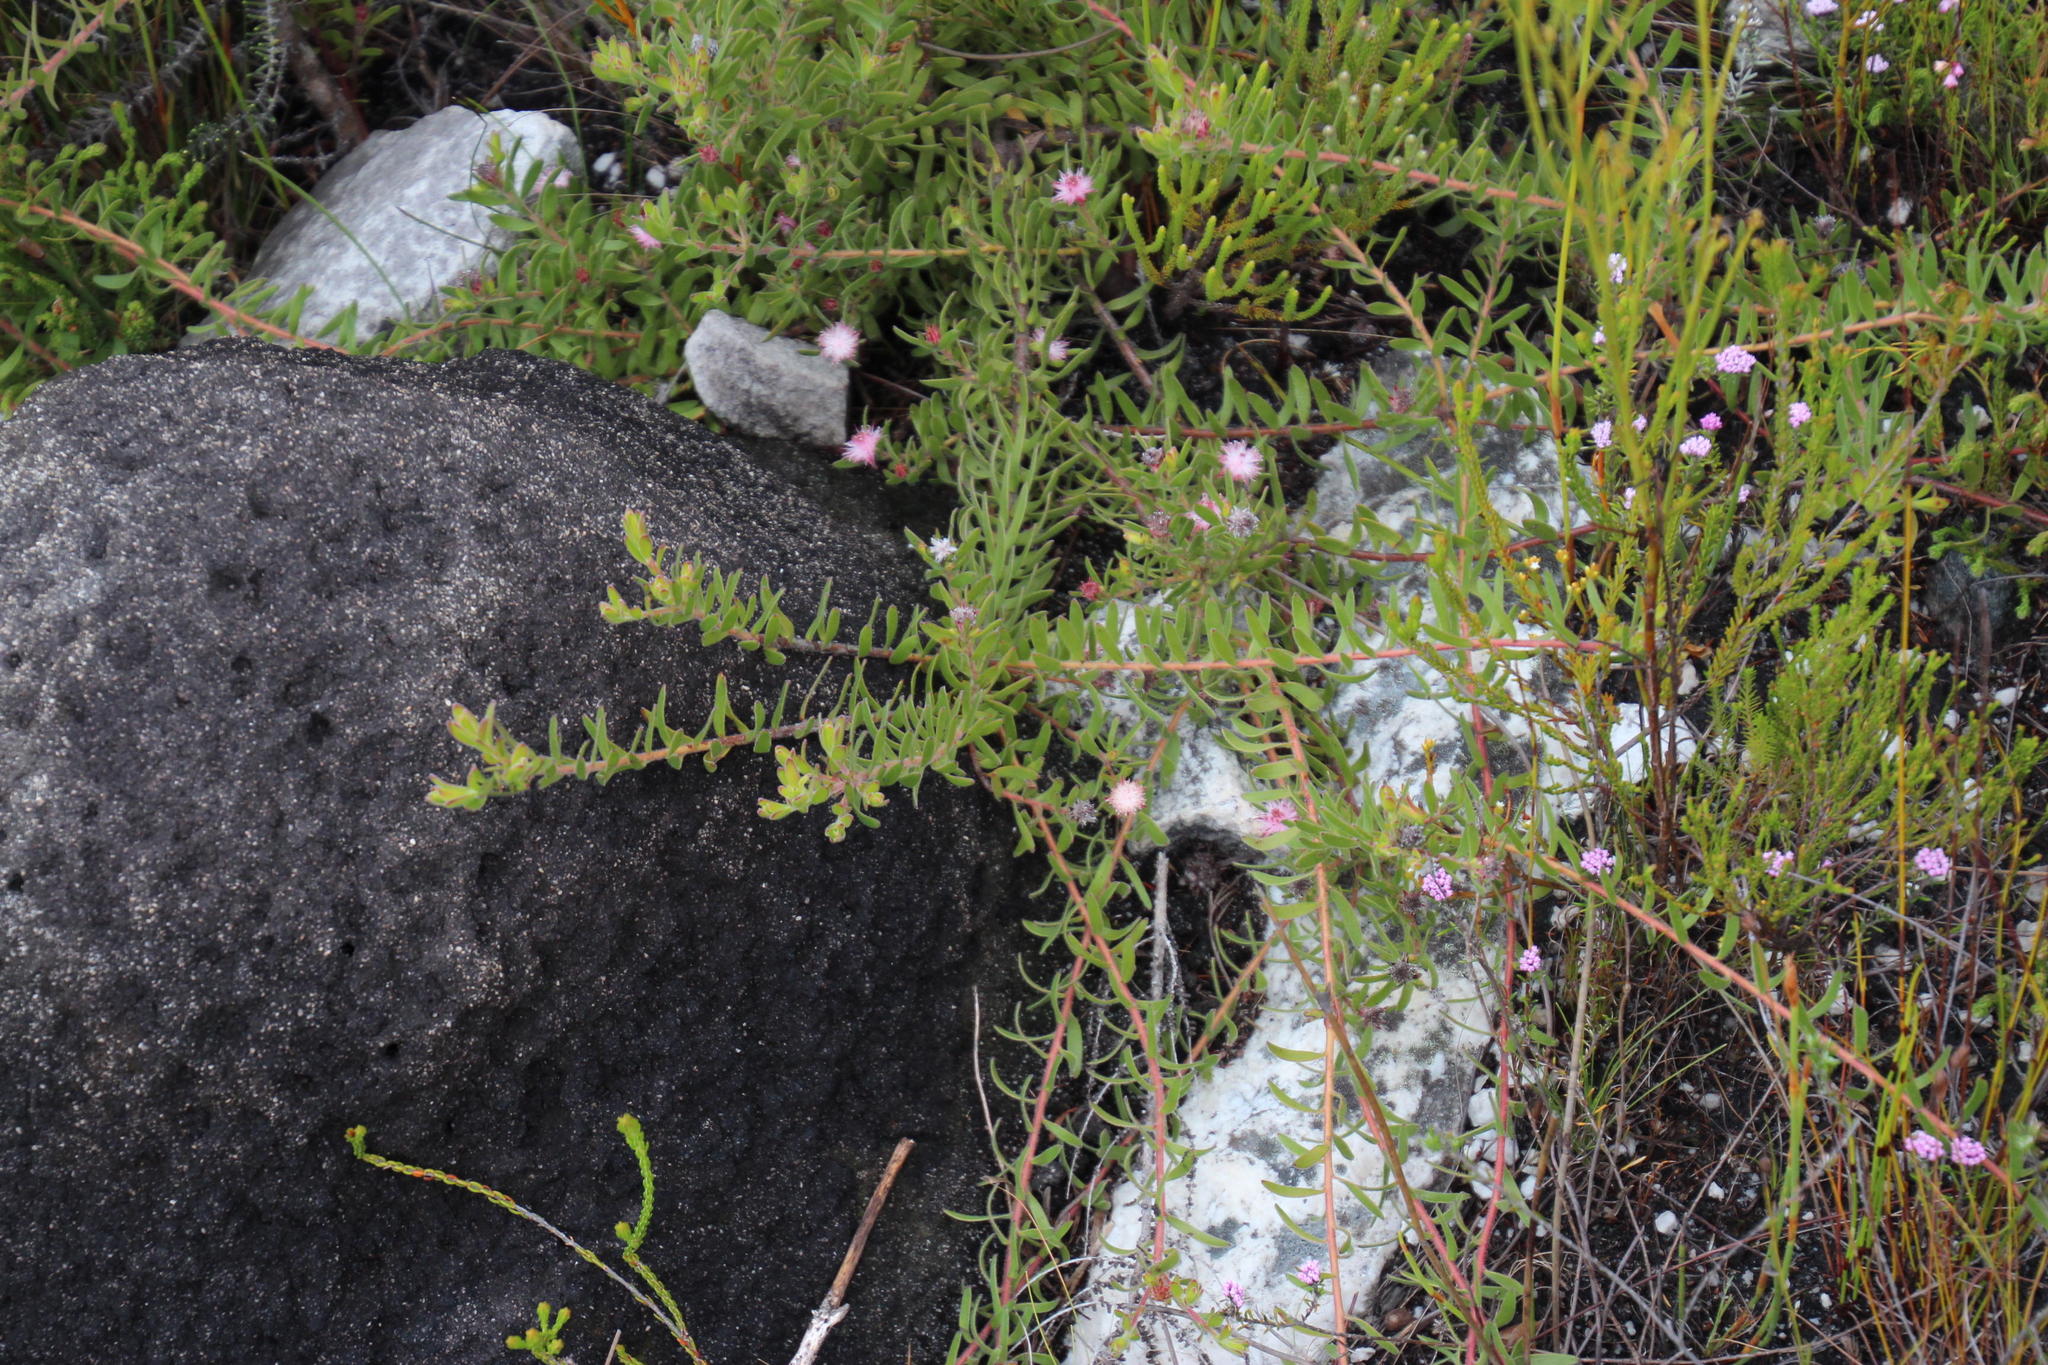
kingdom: Plantae
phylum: Tracheophyta
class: Magnoliopsida
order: Proteales
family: Proteaceae
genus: Diastella
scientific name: Diastella divaricata
